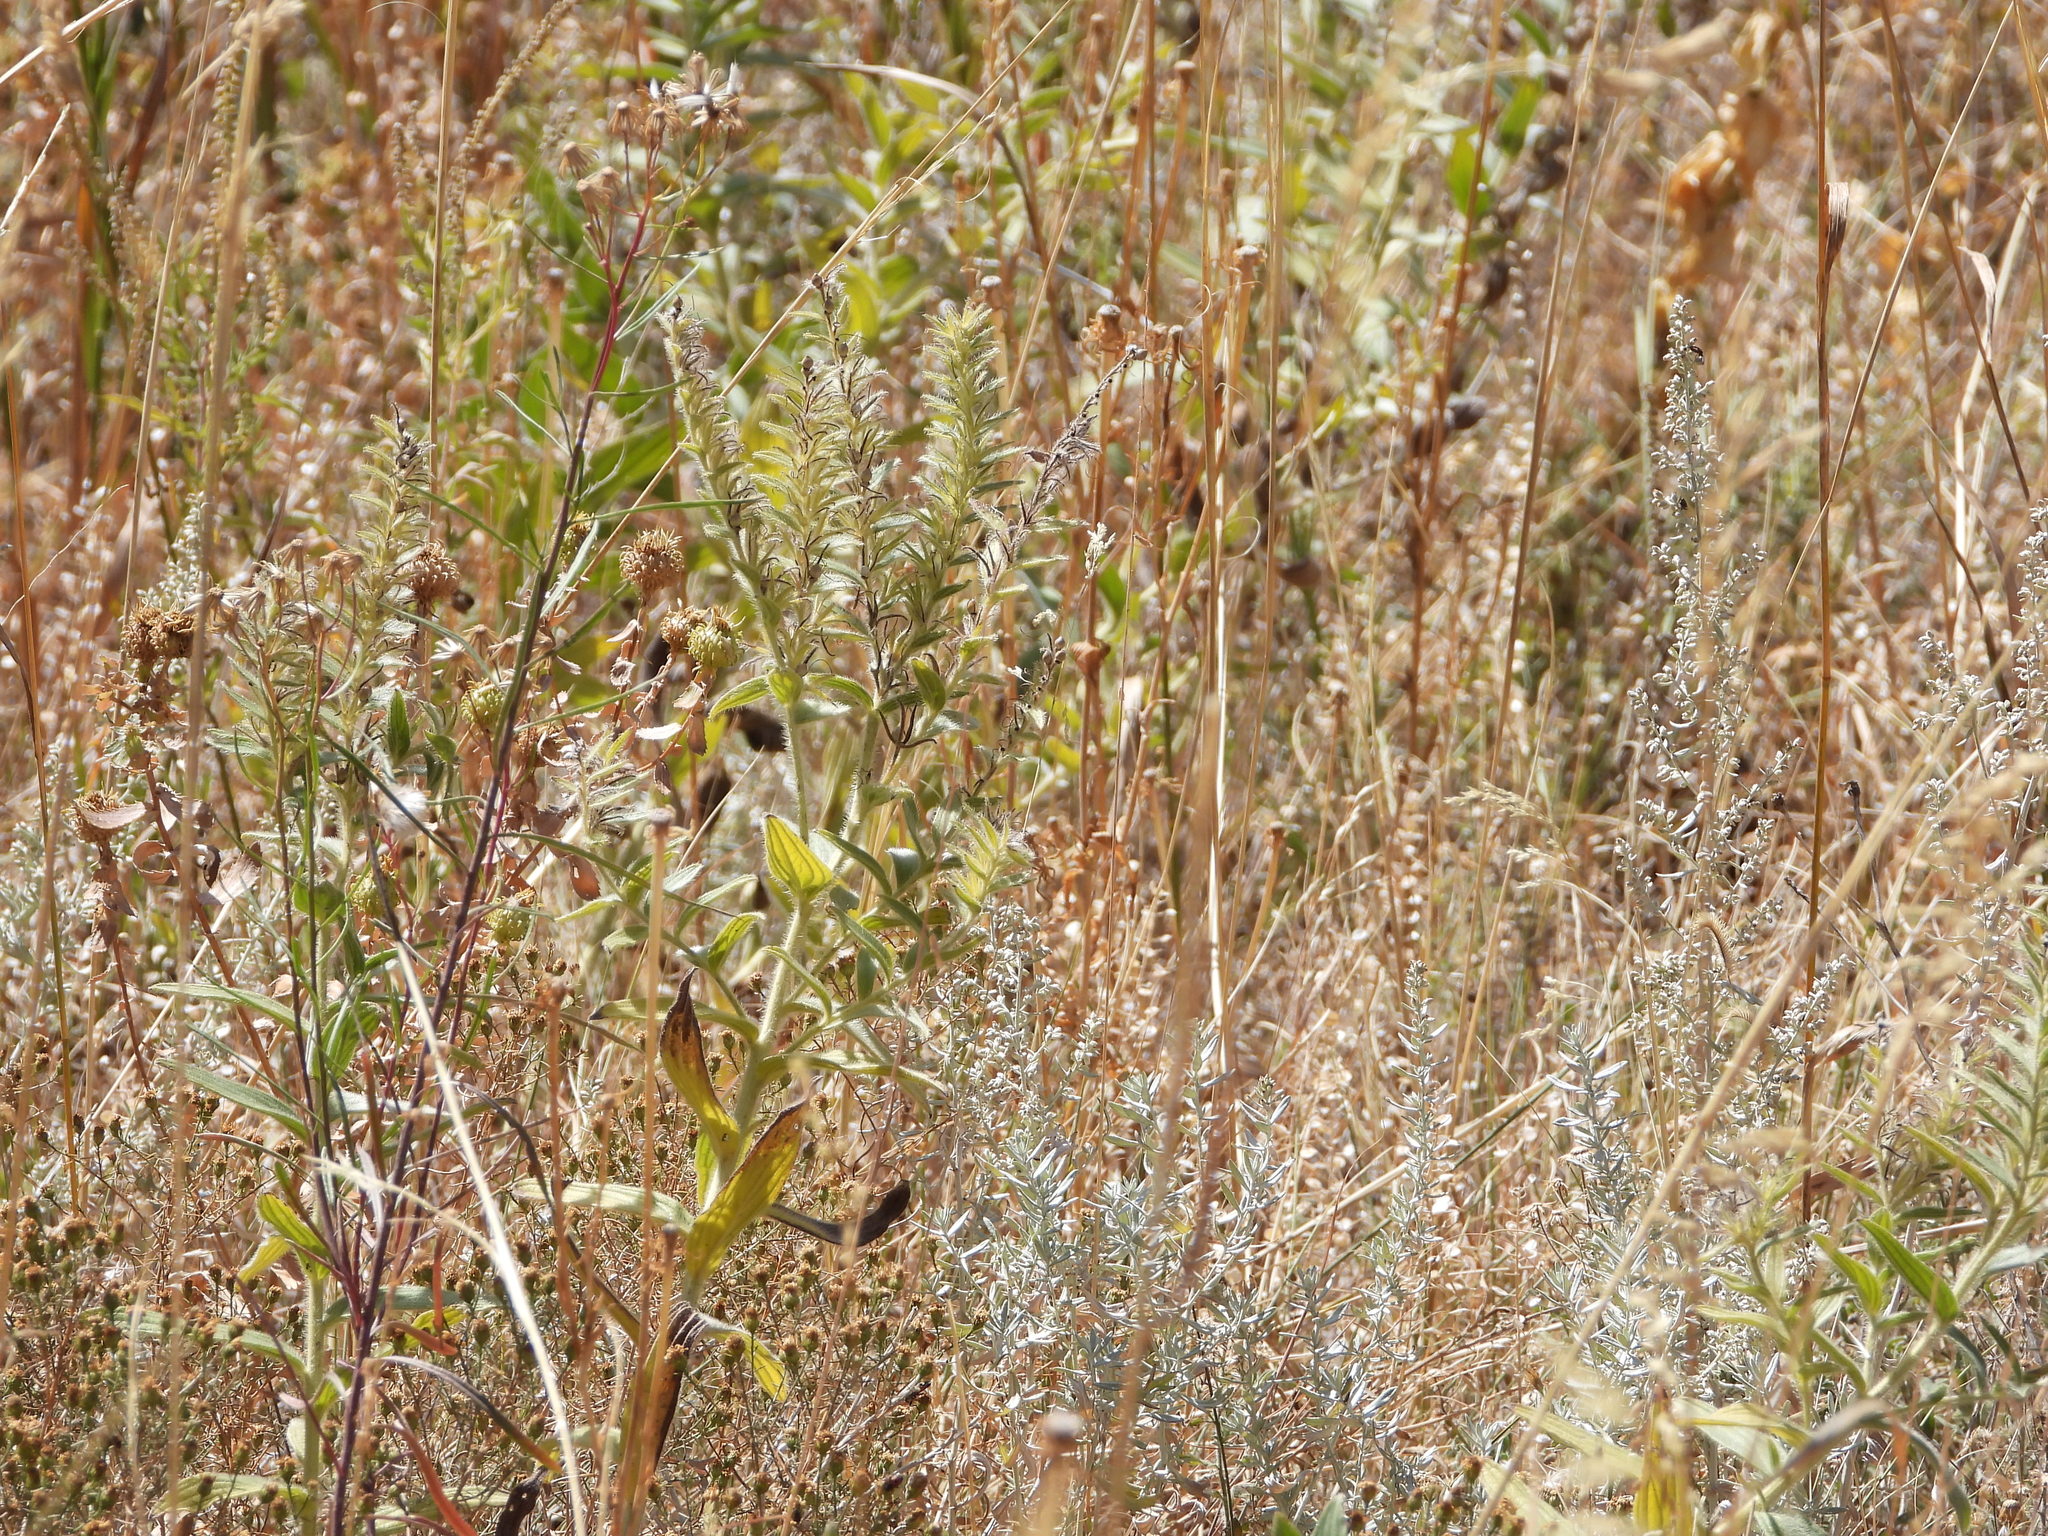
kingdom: Plantae
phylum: Tracheophyta
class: Magnoliopsida
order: Boraginales
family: Boraginaceae
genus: Lithospermum
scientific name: Lithospermum occidentale
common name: Western false gromwell
